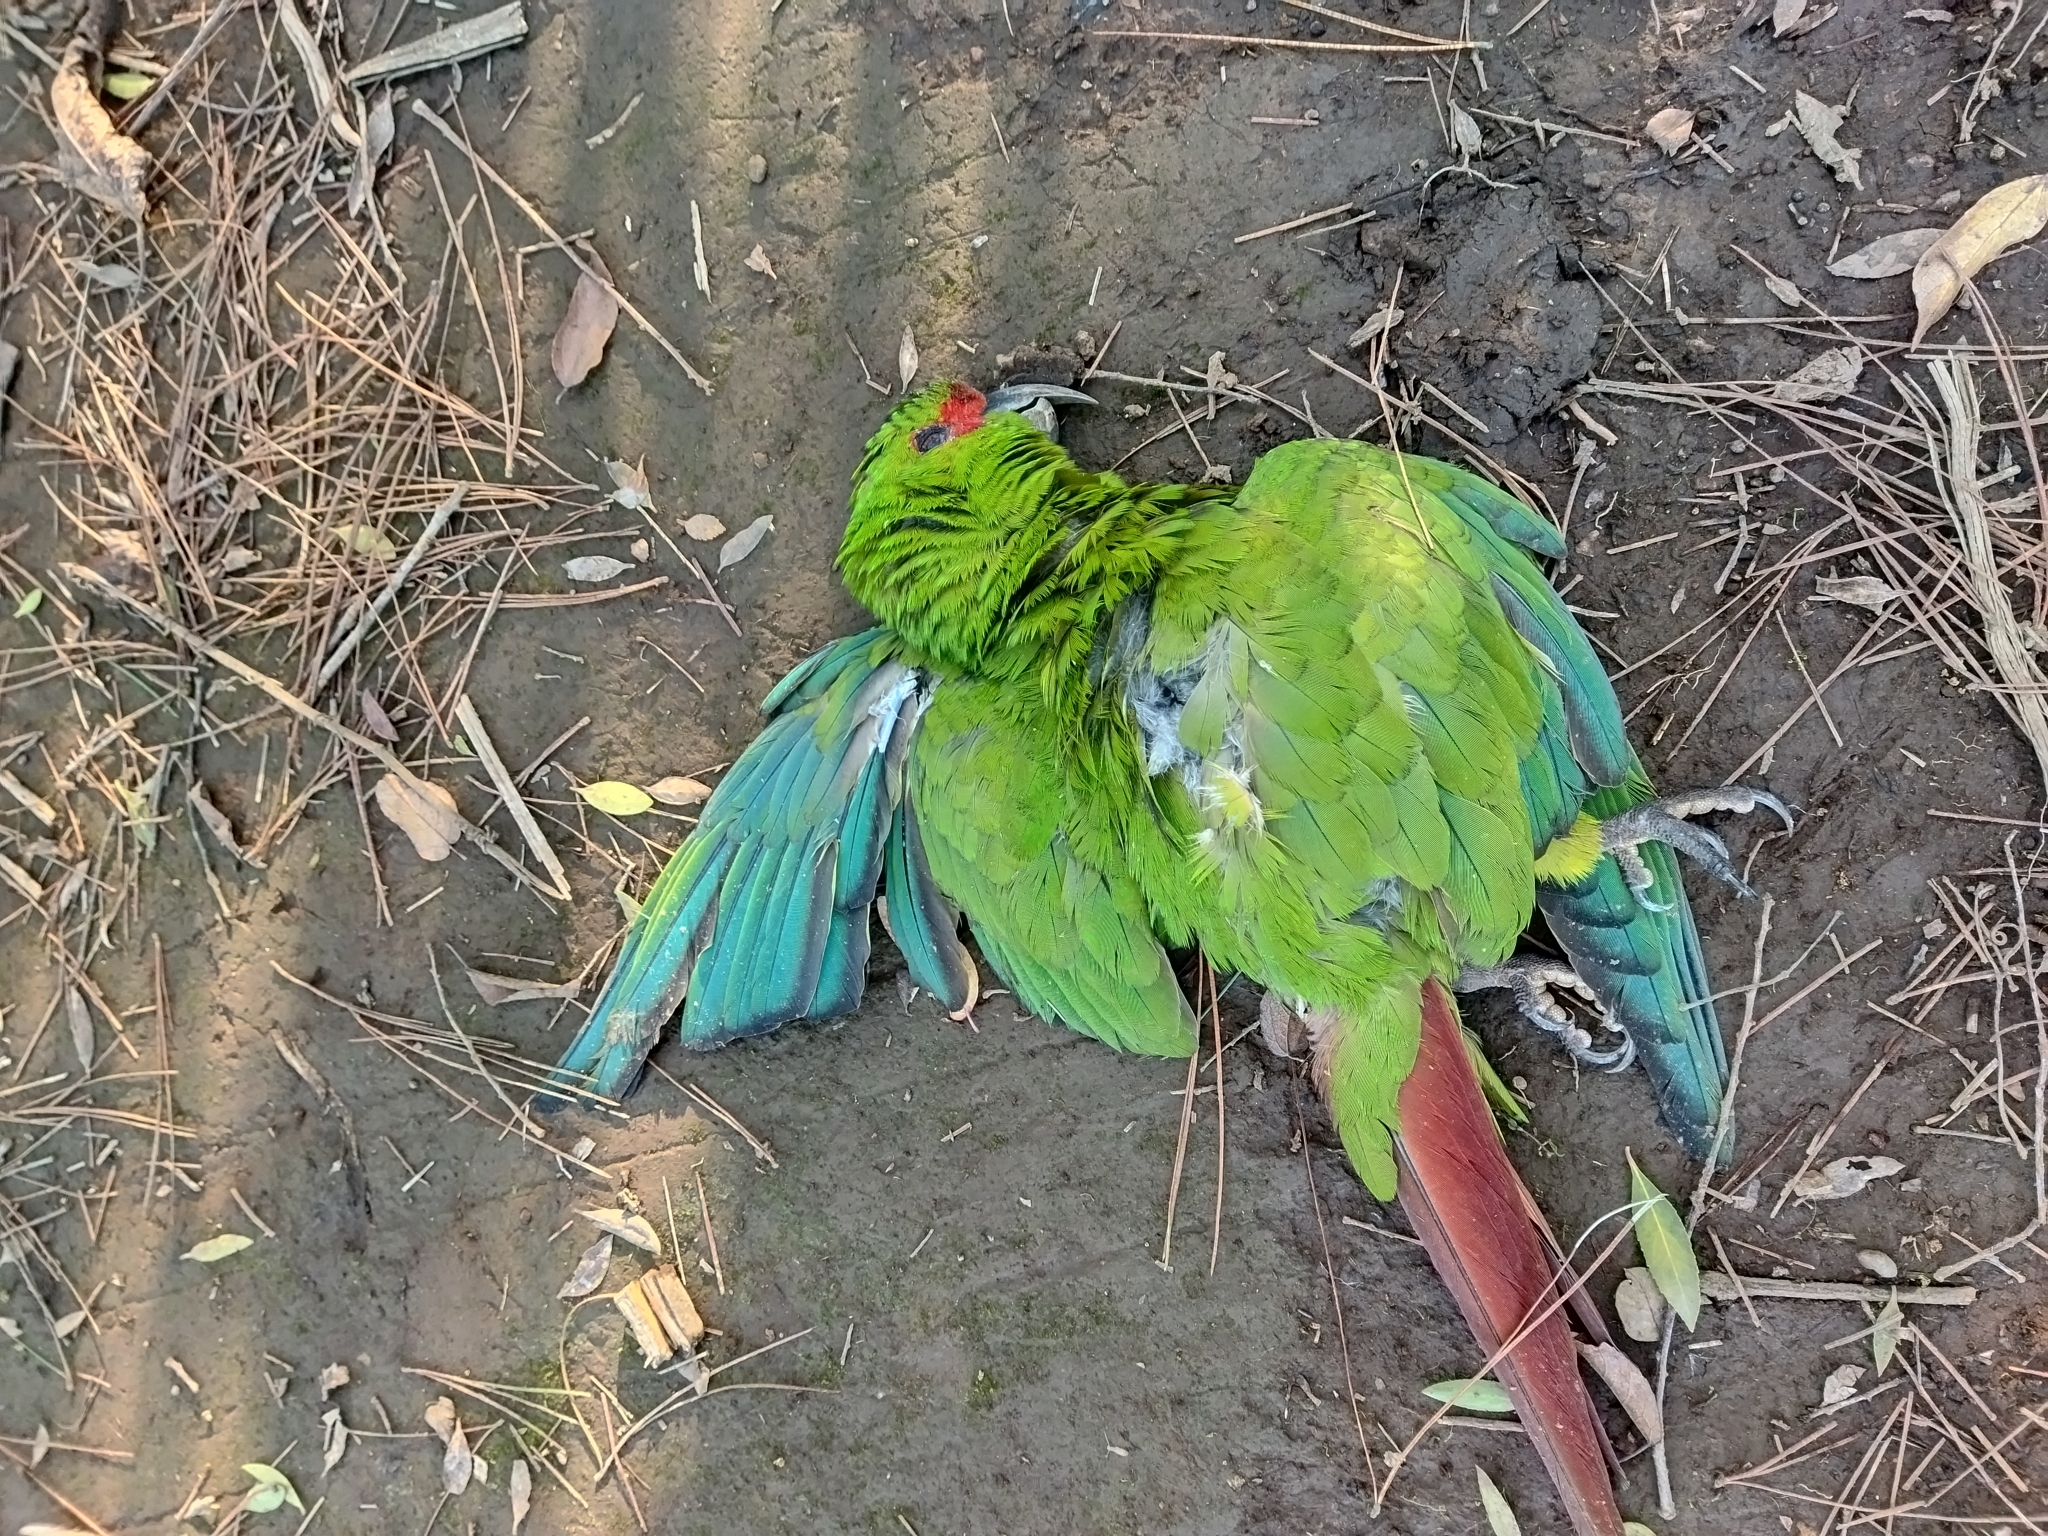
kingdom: Animalia
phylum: Chordata
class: Aves
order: Psittaciformes
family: Psittacidae
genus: Enicognathus
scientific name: Enicognathus leptorhynchus
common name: Slender-billed parakeet
